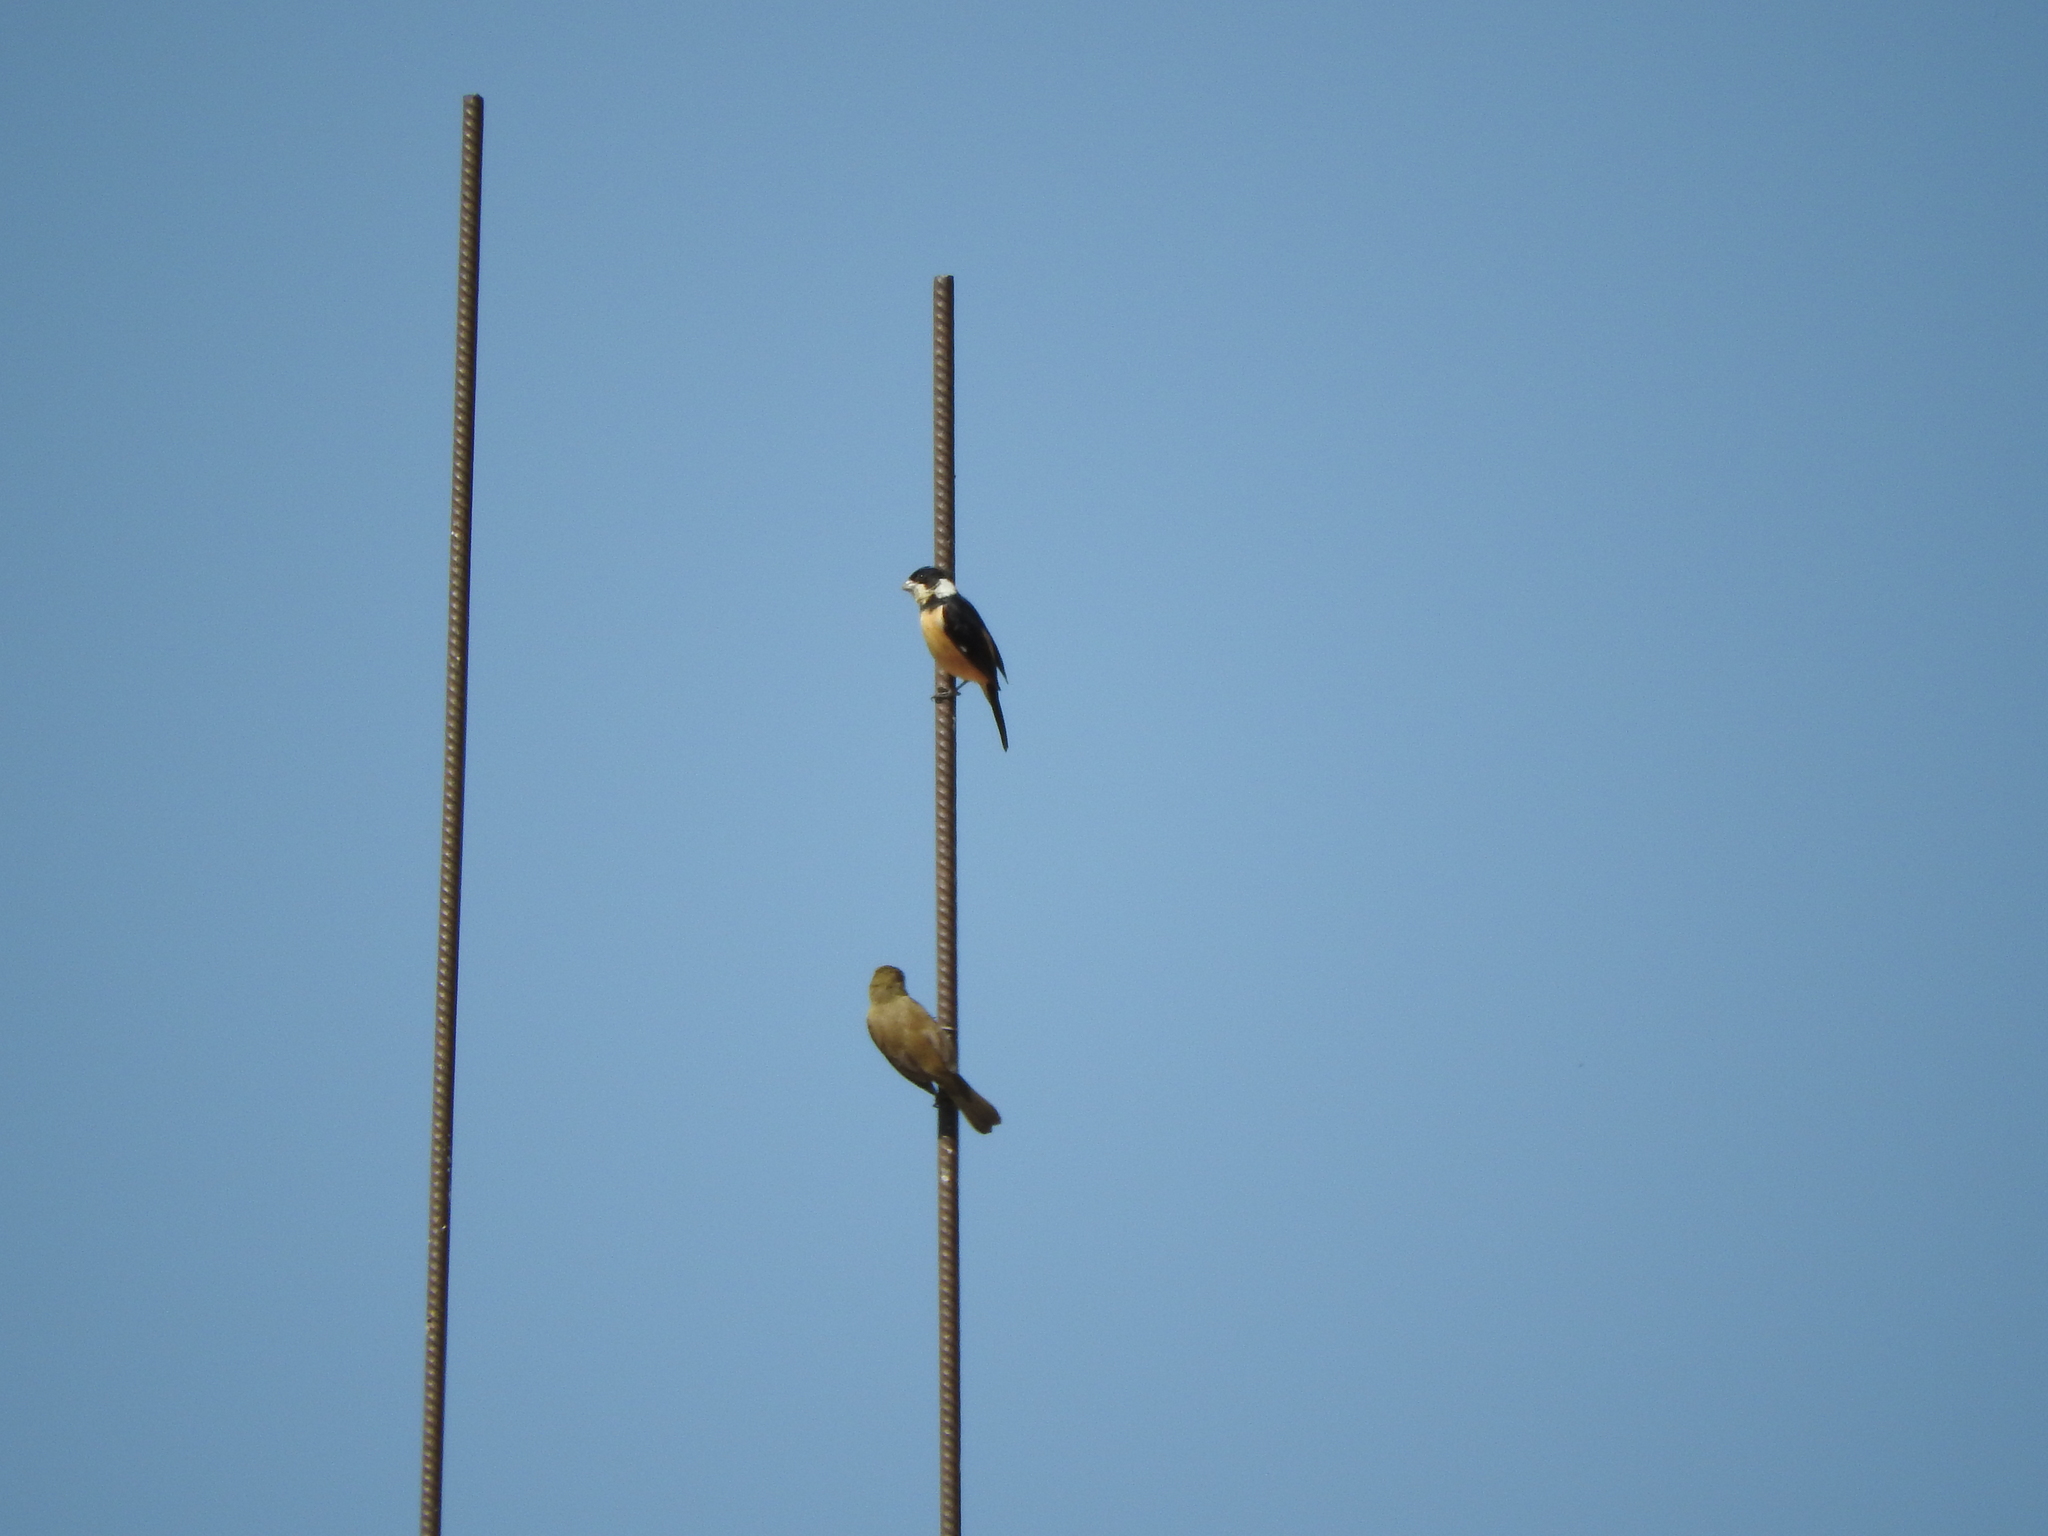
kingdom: Animalia
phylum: Chordata
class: Aves
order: Passeriformes
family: Thraupidae
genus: Sporophila
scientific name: Sporophila torqueola
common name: White-collared seedeater
